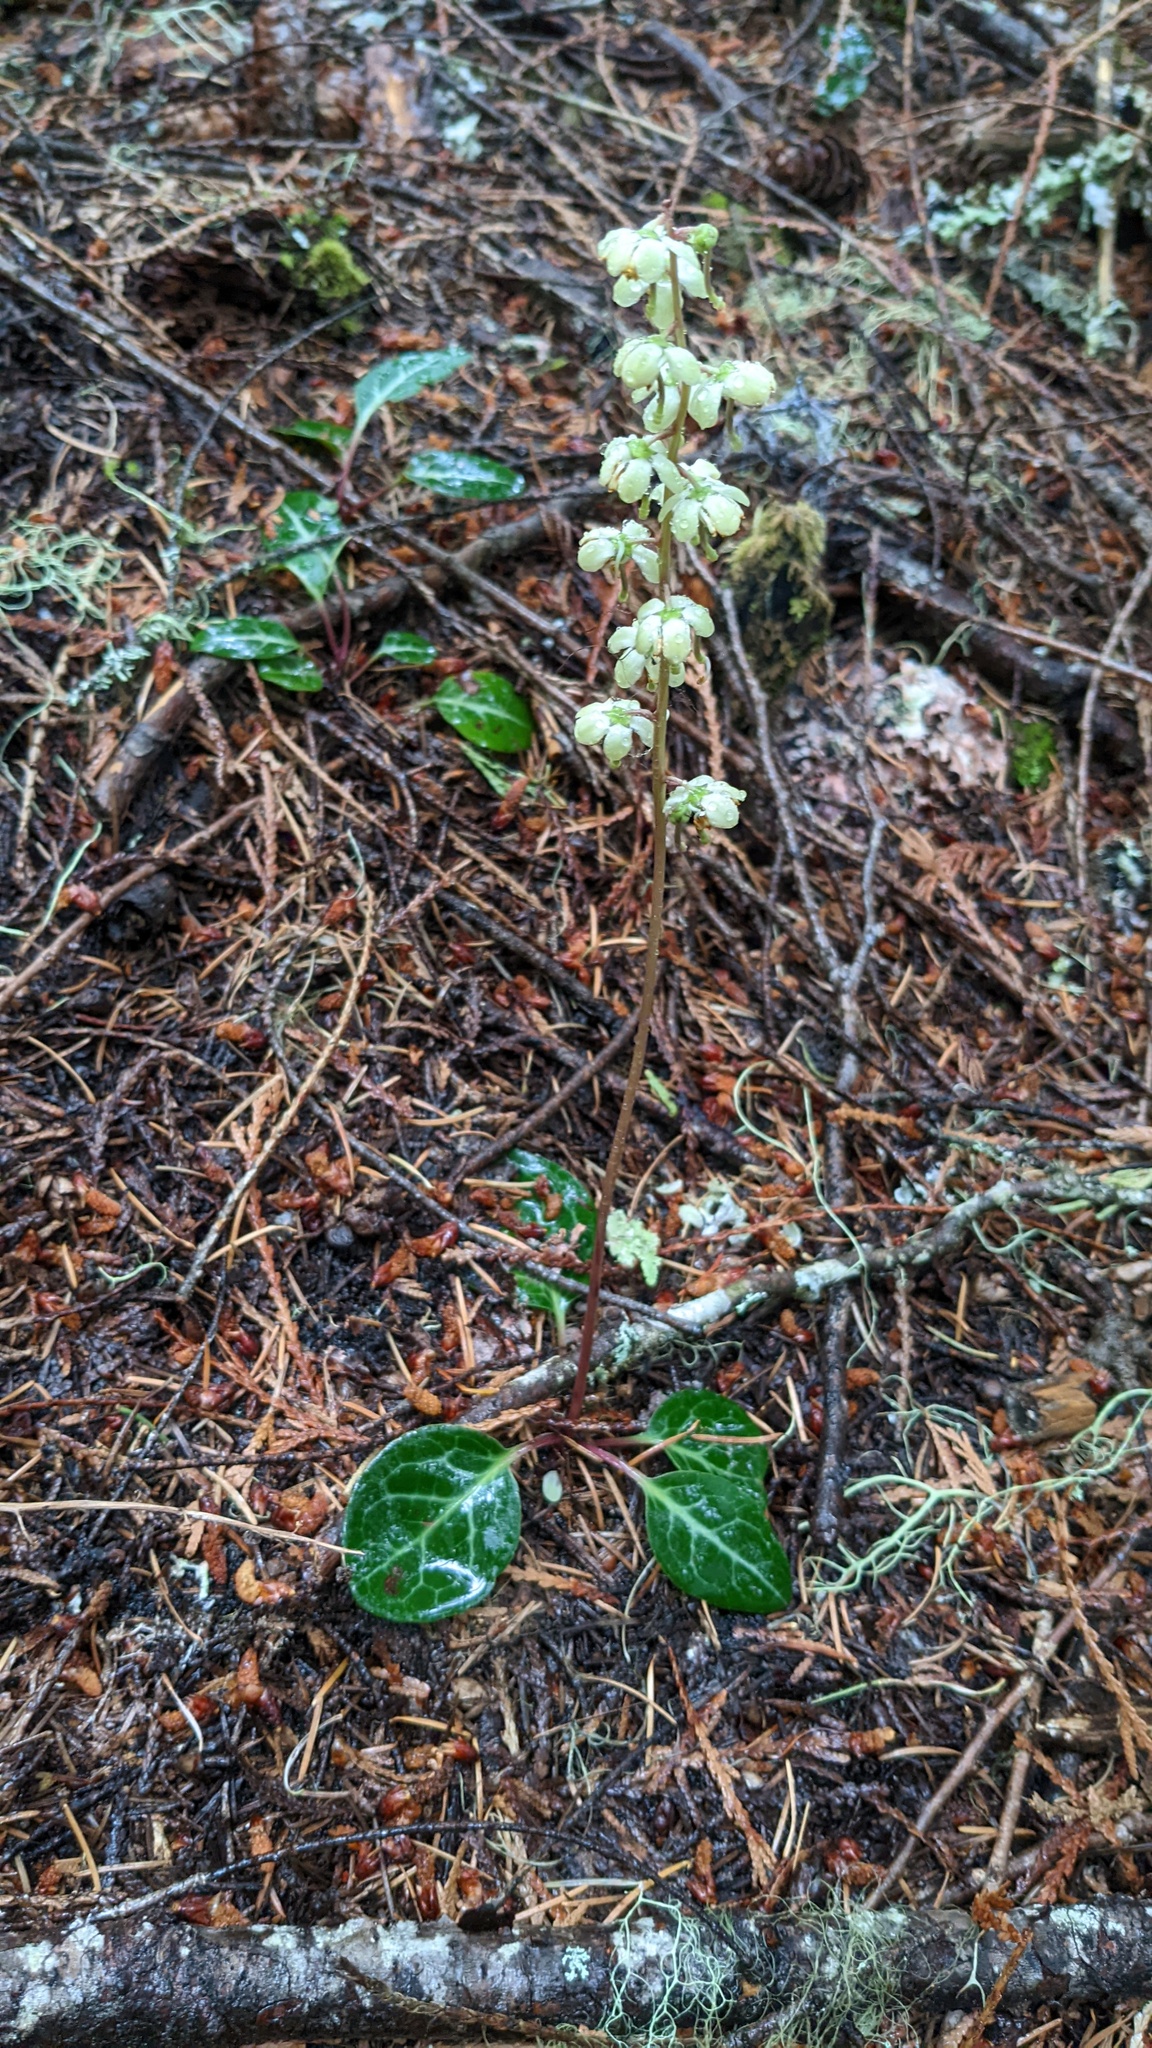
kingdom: Plantae
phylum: Tracheophyta
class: Magnoliopsida
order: Ericales
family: Ericaceae
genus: Pyrola
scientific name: Pyrola picta
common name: White-vein wintergreen
